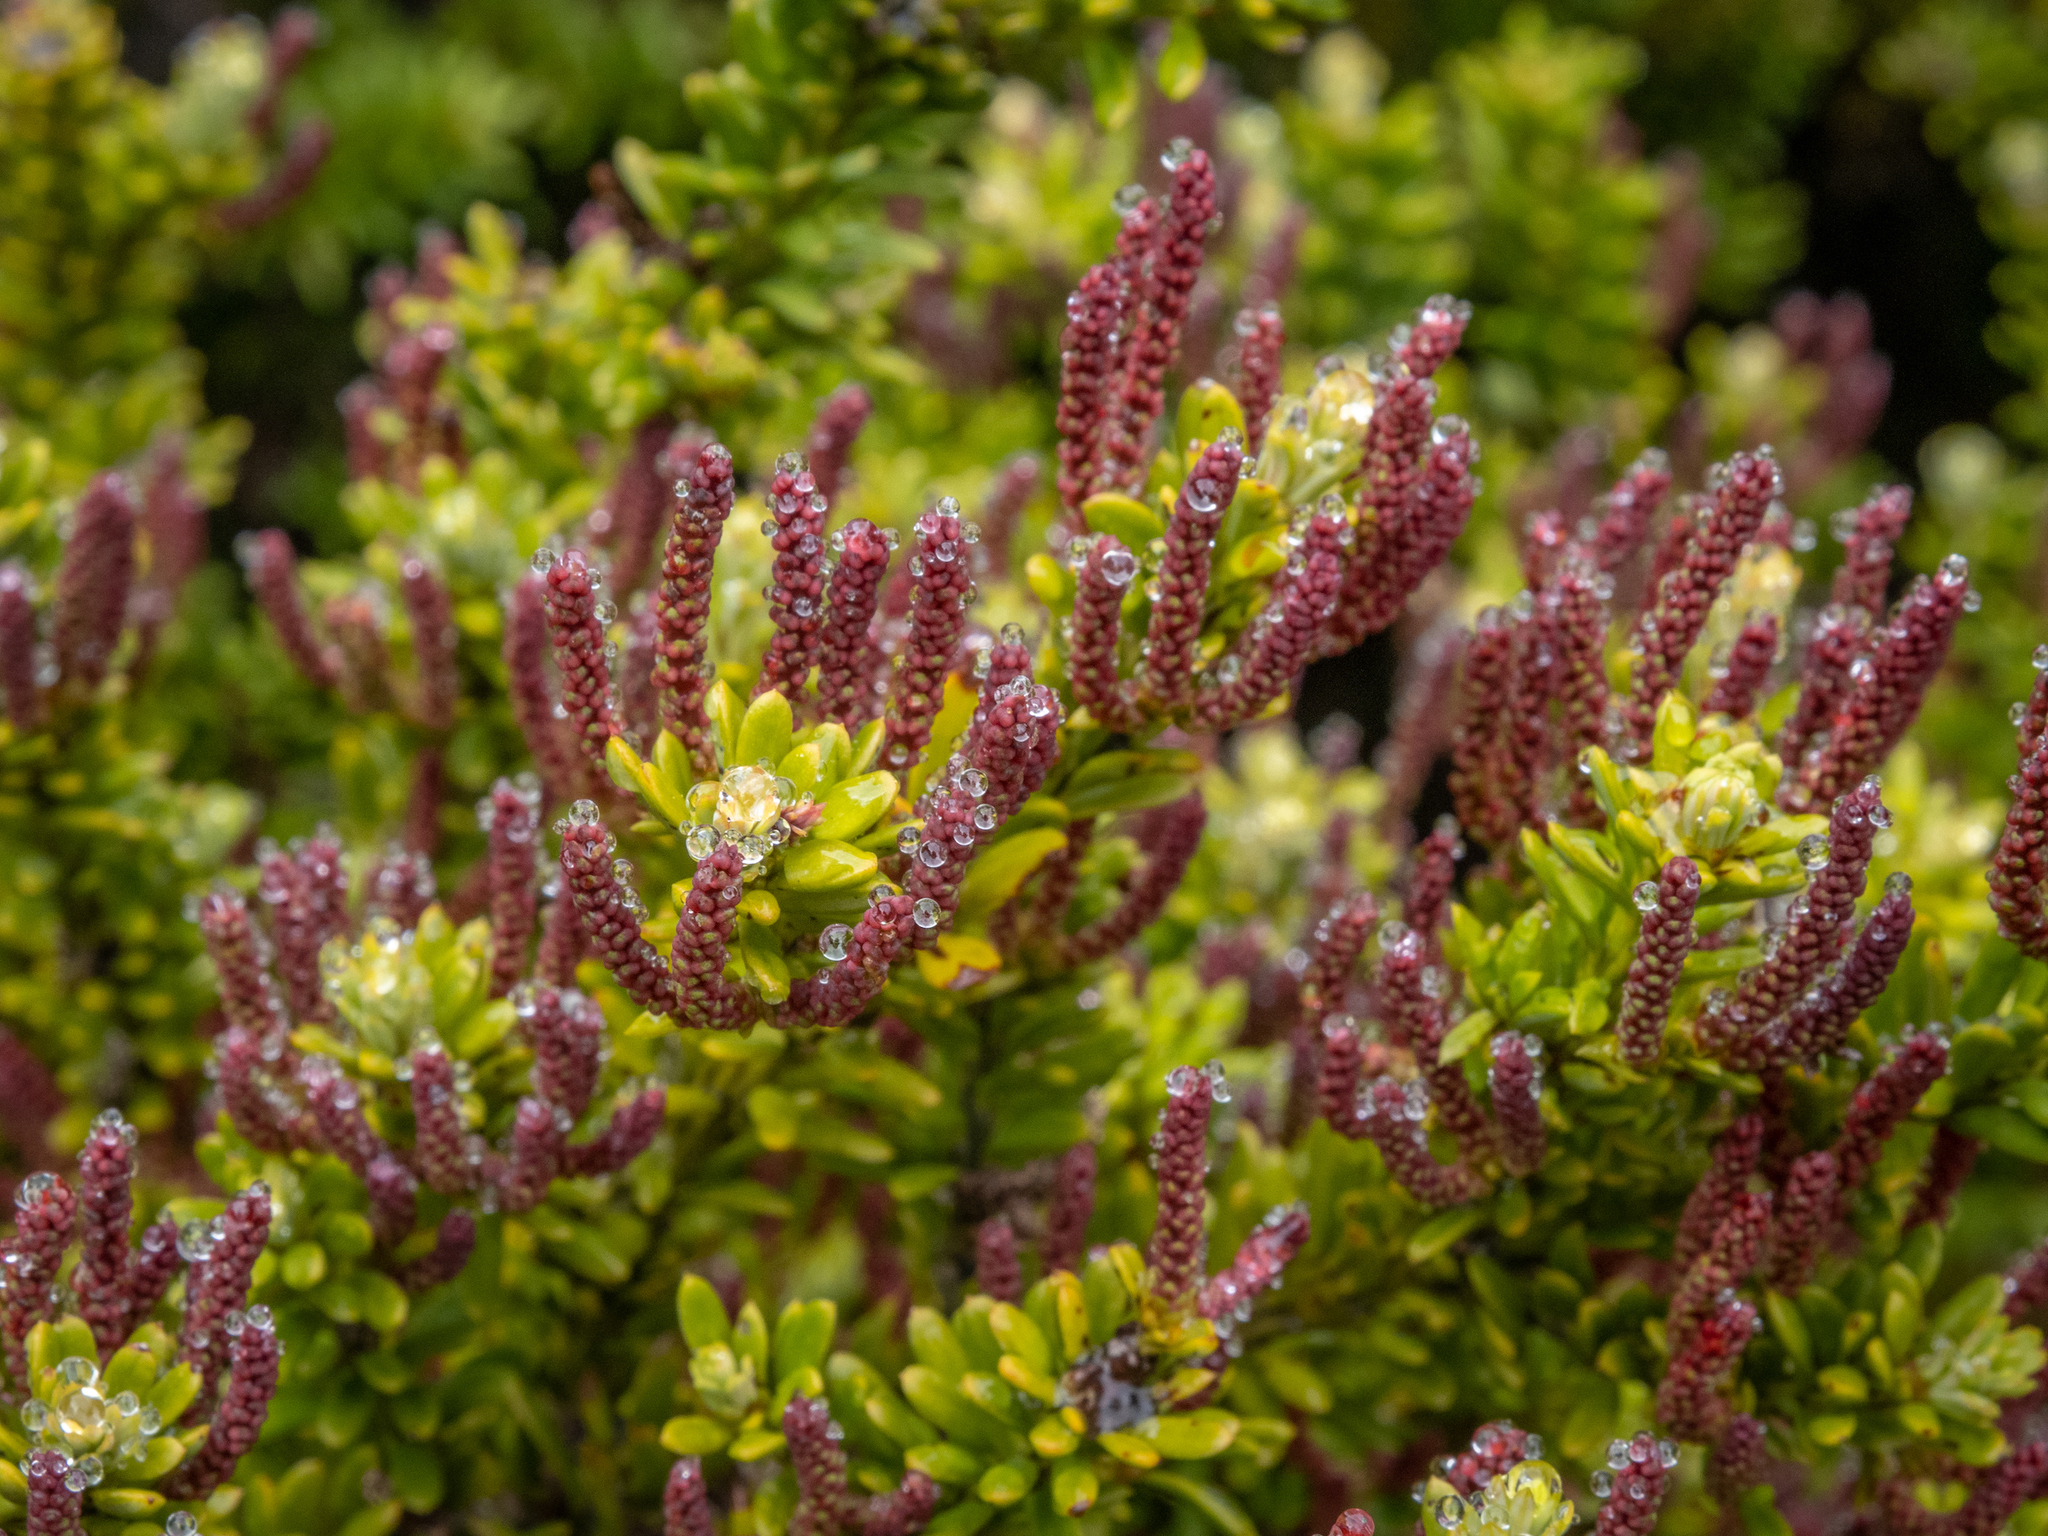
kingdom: Plantae
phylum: Tracheophyta
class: Pinopsida
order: Pinales
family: Podocarpaceae
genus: Podocarpus
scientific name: Podocarpus nivalis
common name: Alpine totara
